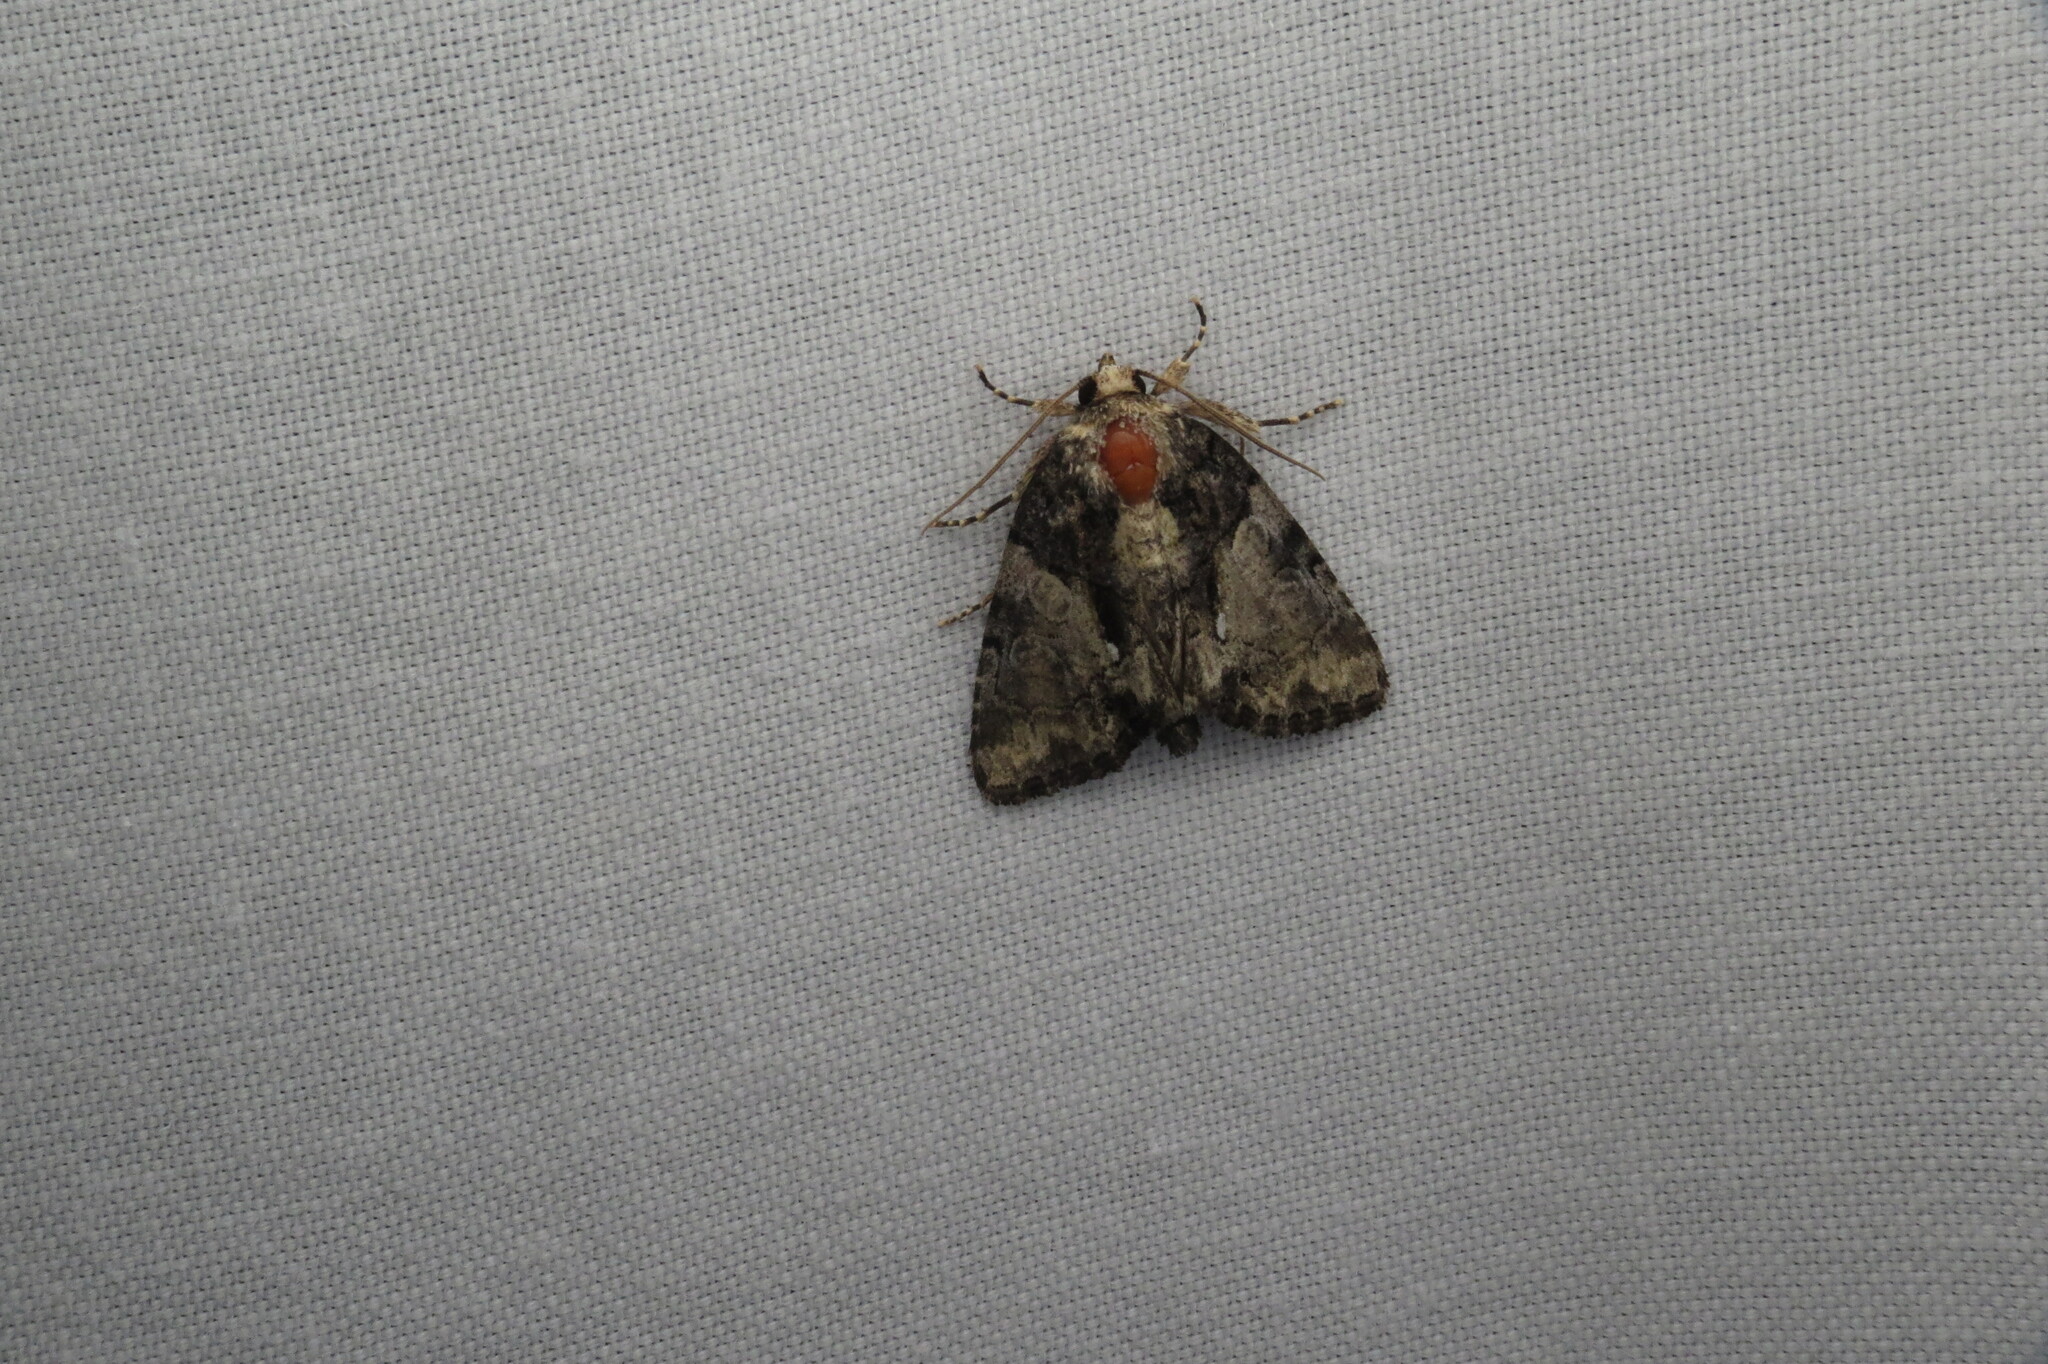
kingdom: Animalia
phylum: Arthropoda
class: Insecta
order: Lepidoptera
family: Noctuidae
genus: Chytonix
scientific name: Chytonix palliatricula
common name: Cloaked marvel
